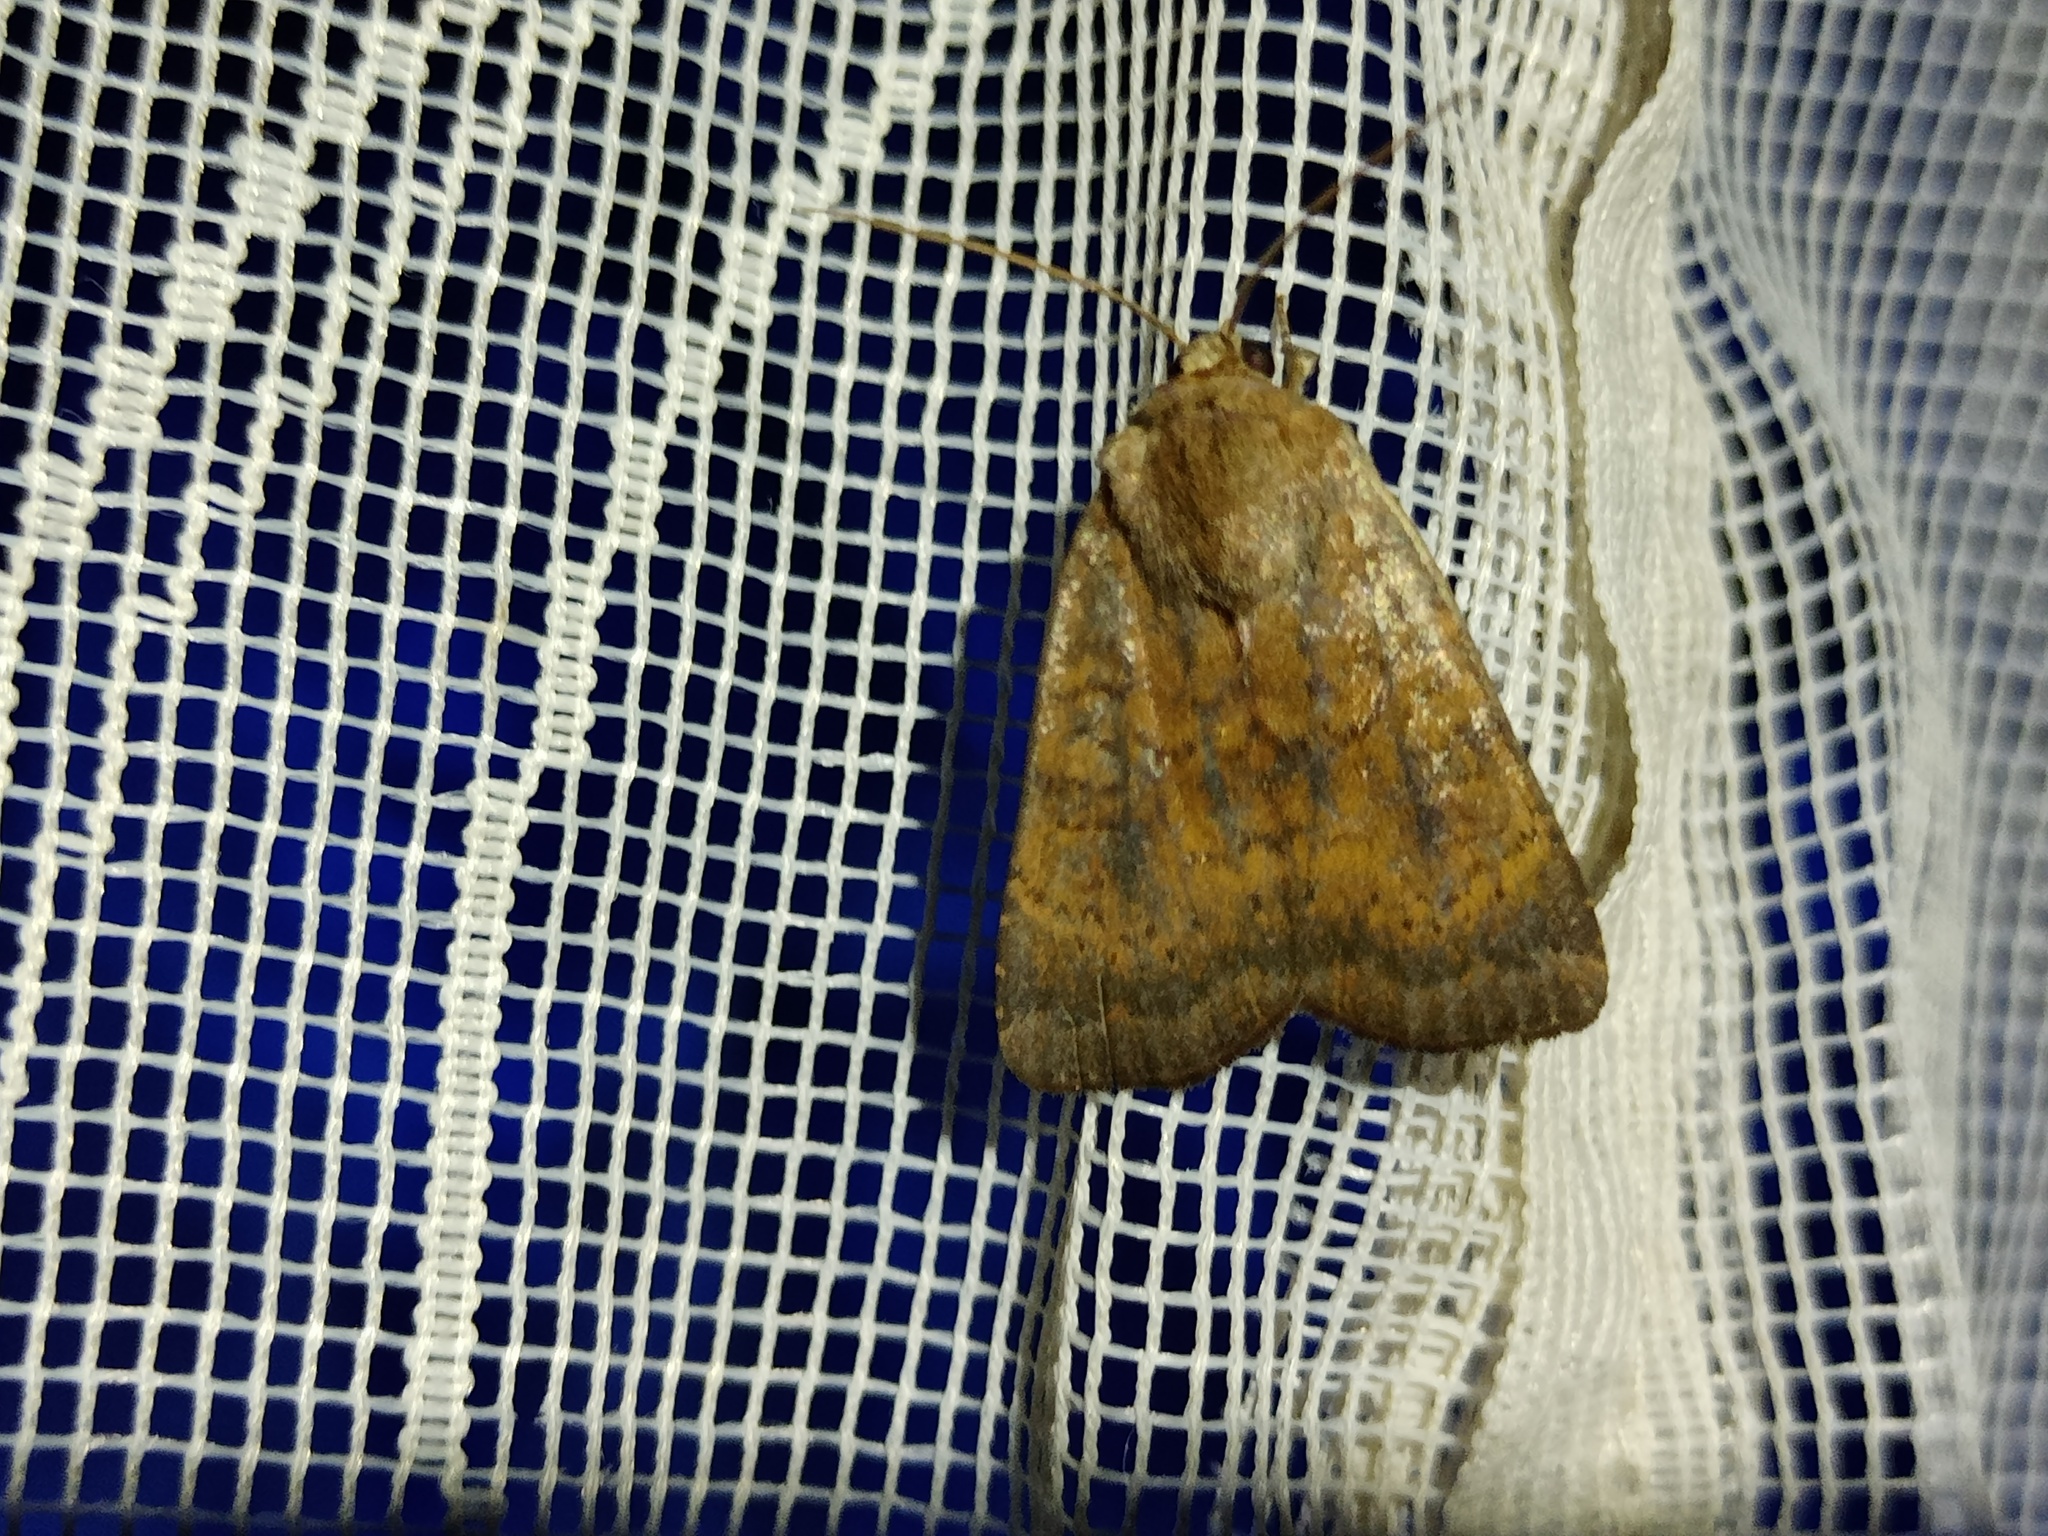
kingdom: Animalia
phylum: Arthropoda
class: Insecta
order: Lepidoptera
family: Noctuidae
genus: Noctua
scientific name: Noctua interjecta
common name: Least yellow underwing
